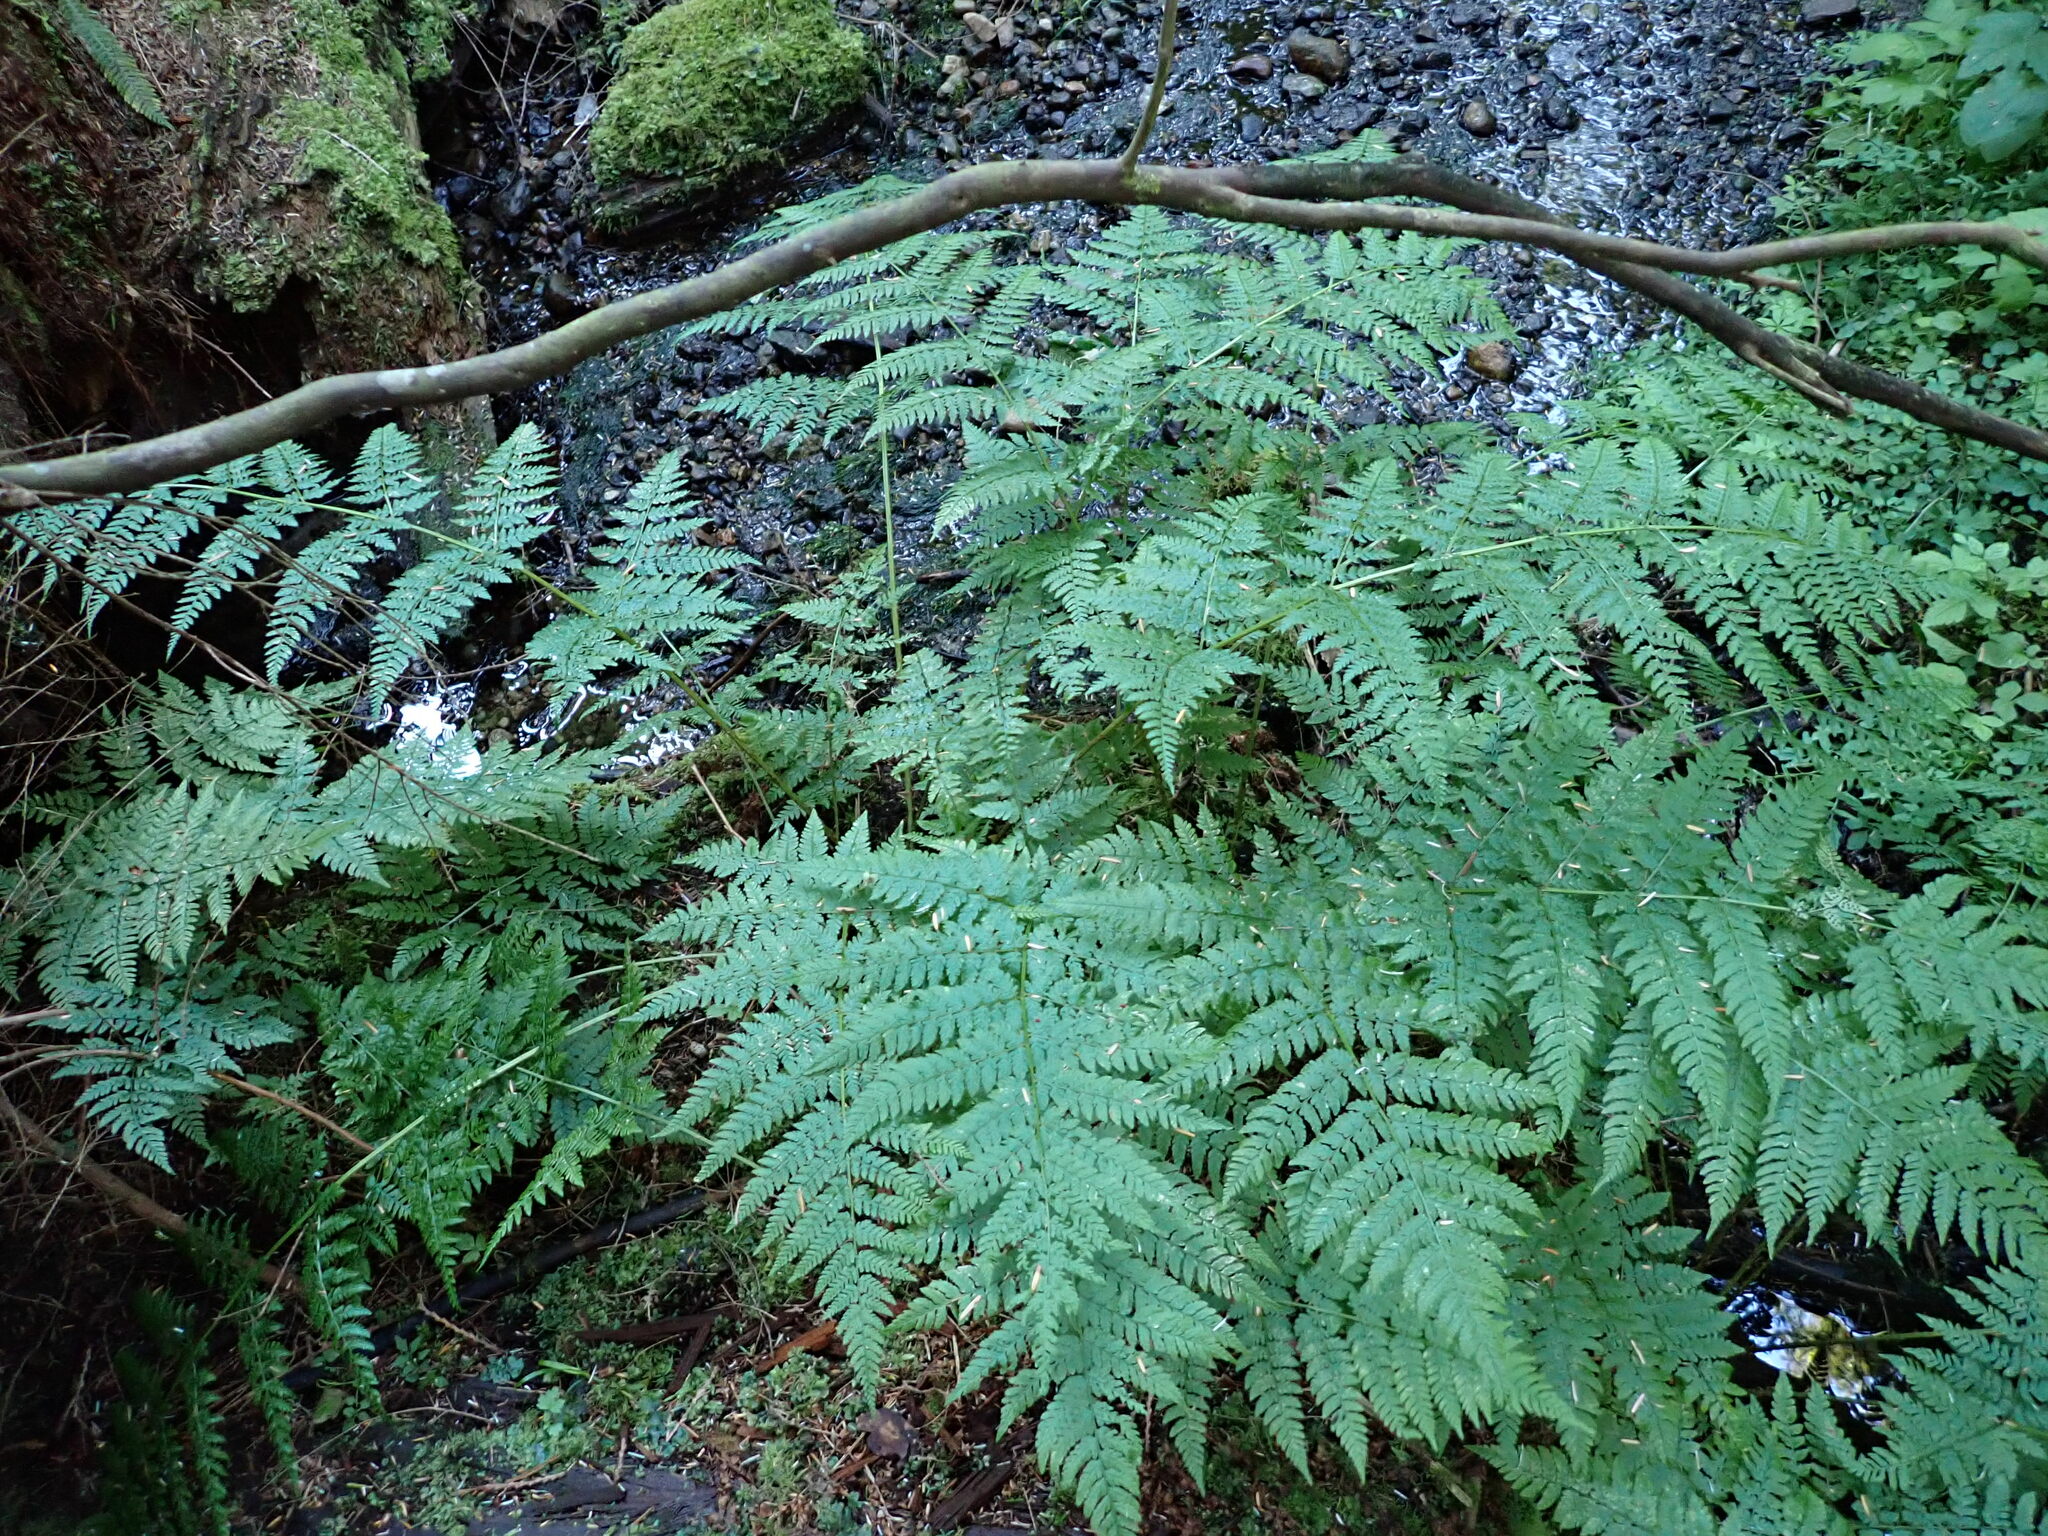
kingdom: Plantae
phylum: Tracheophyta
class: Polypodiopsida
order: Polypodiales
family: Dryopteridaceae
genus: Dryopteris
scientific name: Dryopteris expansa
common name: Northern buckler fern
